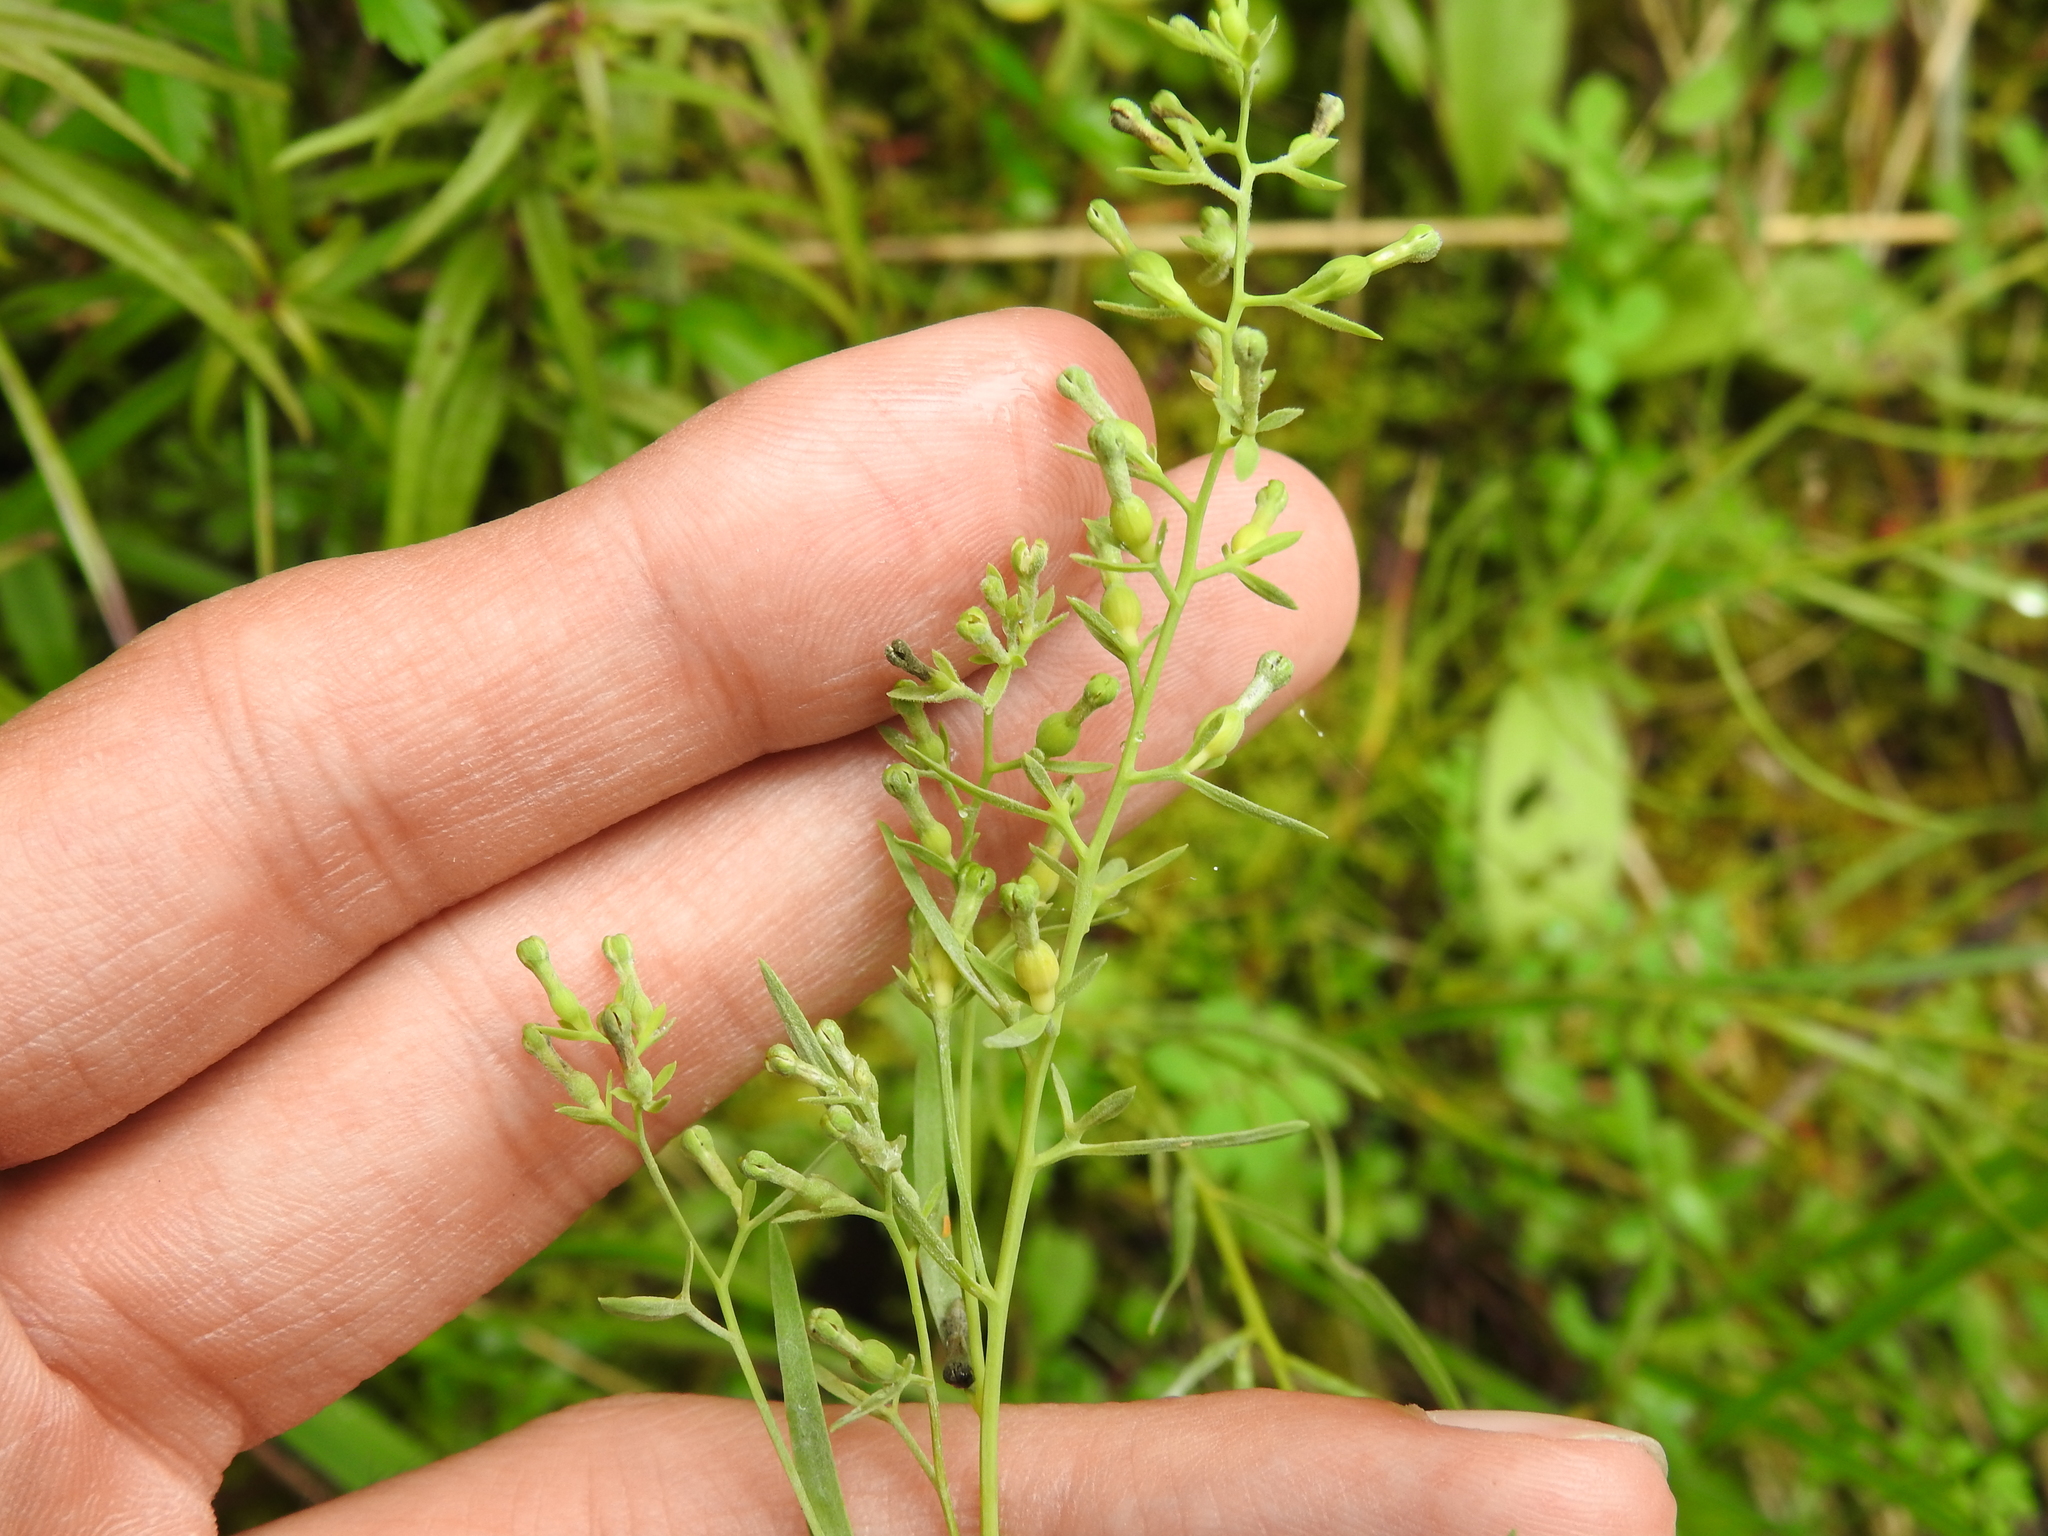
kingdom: Plantae
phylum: Tracheophyta
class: Magnoliopsida
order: Santalales
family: Thesiaceae
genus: Thesium
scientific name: Thesium alpinum
